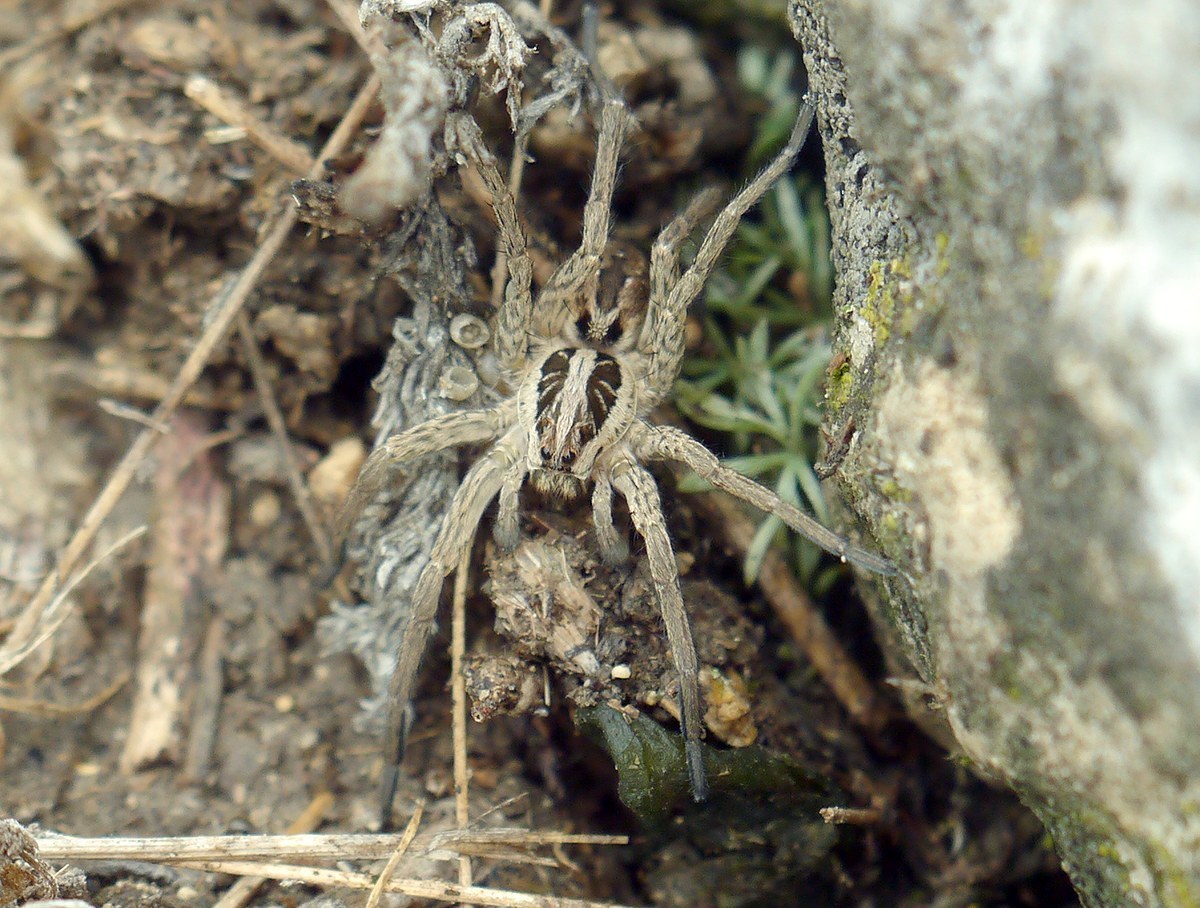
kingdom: Animalia
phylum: Arthropoda
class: Arachnida
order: Araneae
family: Lycosidae
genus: Hogna
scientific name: Hogna radiata
